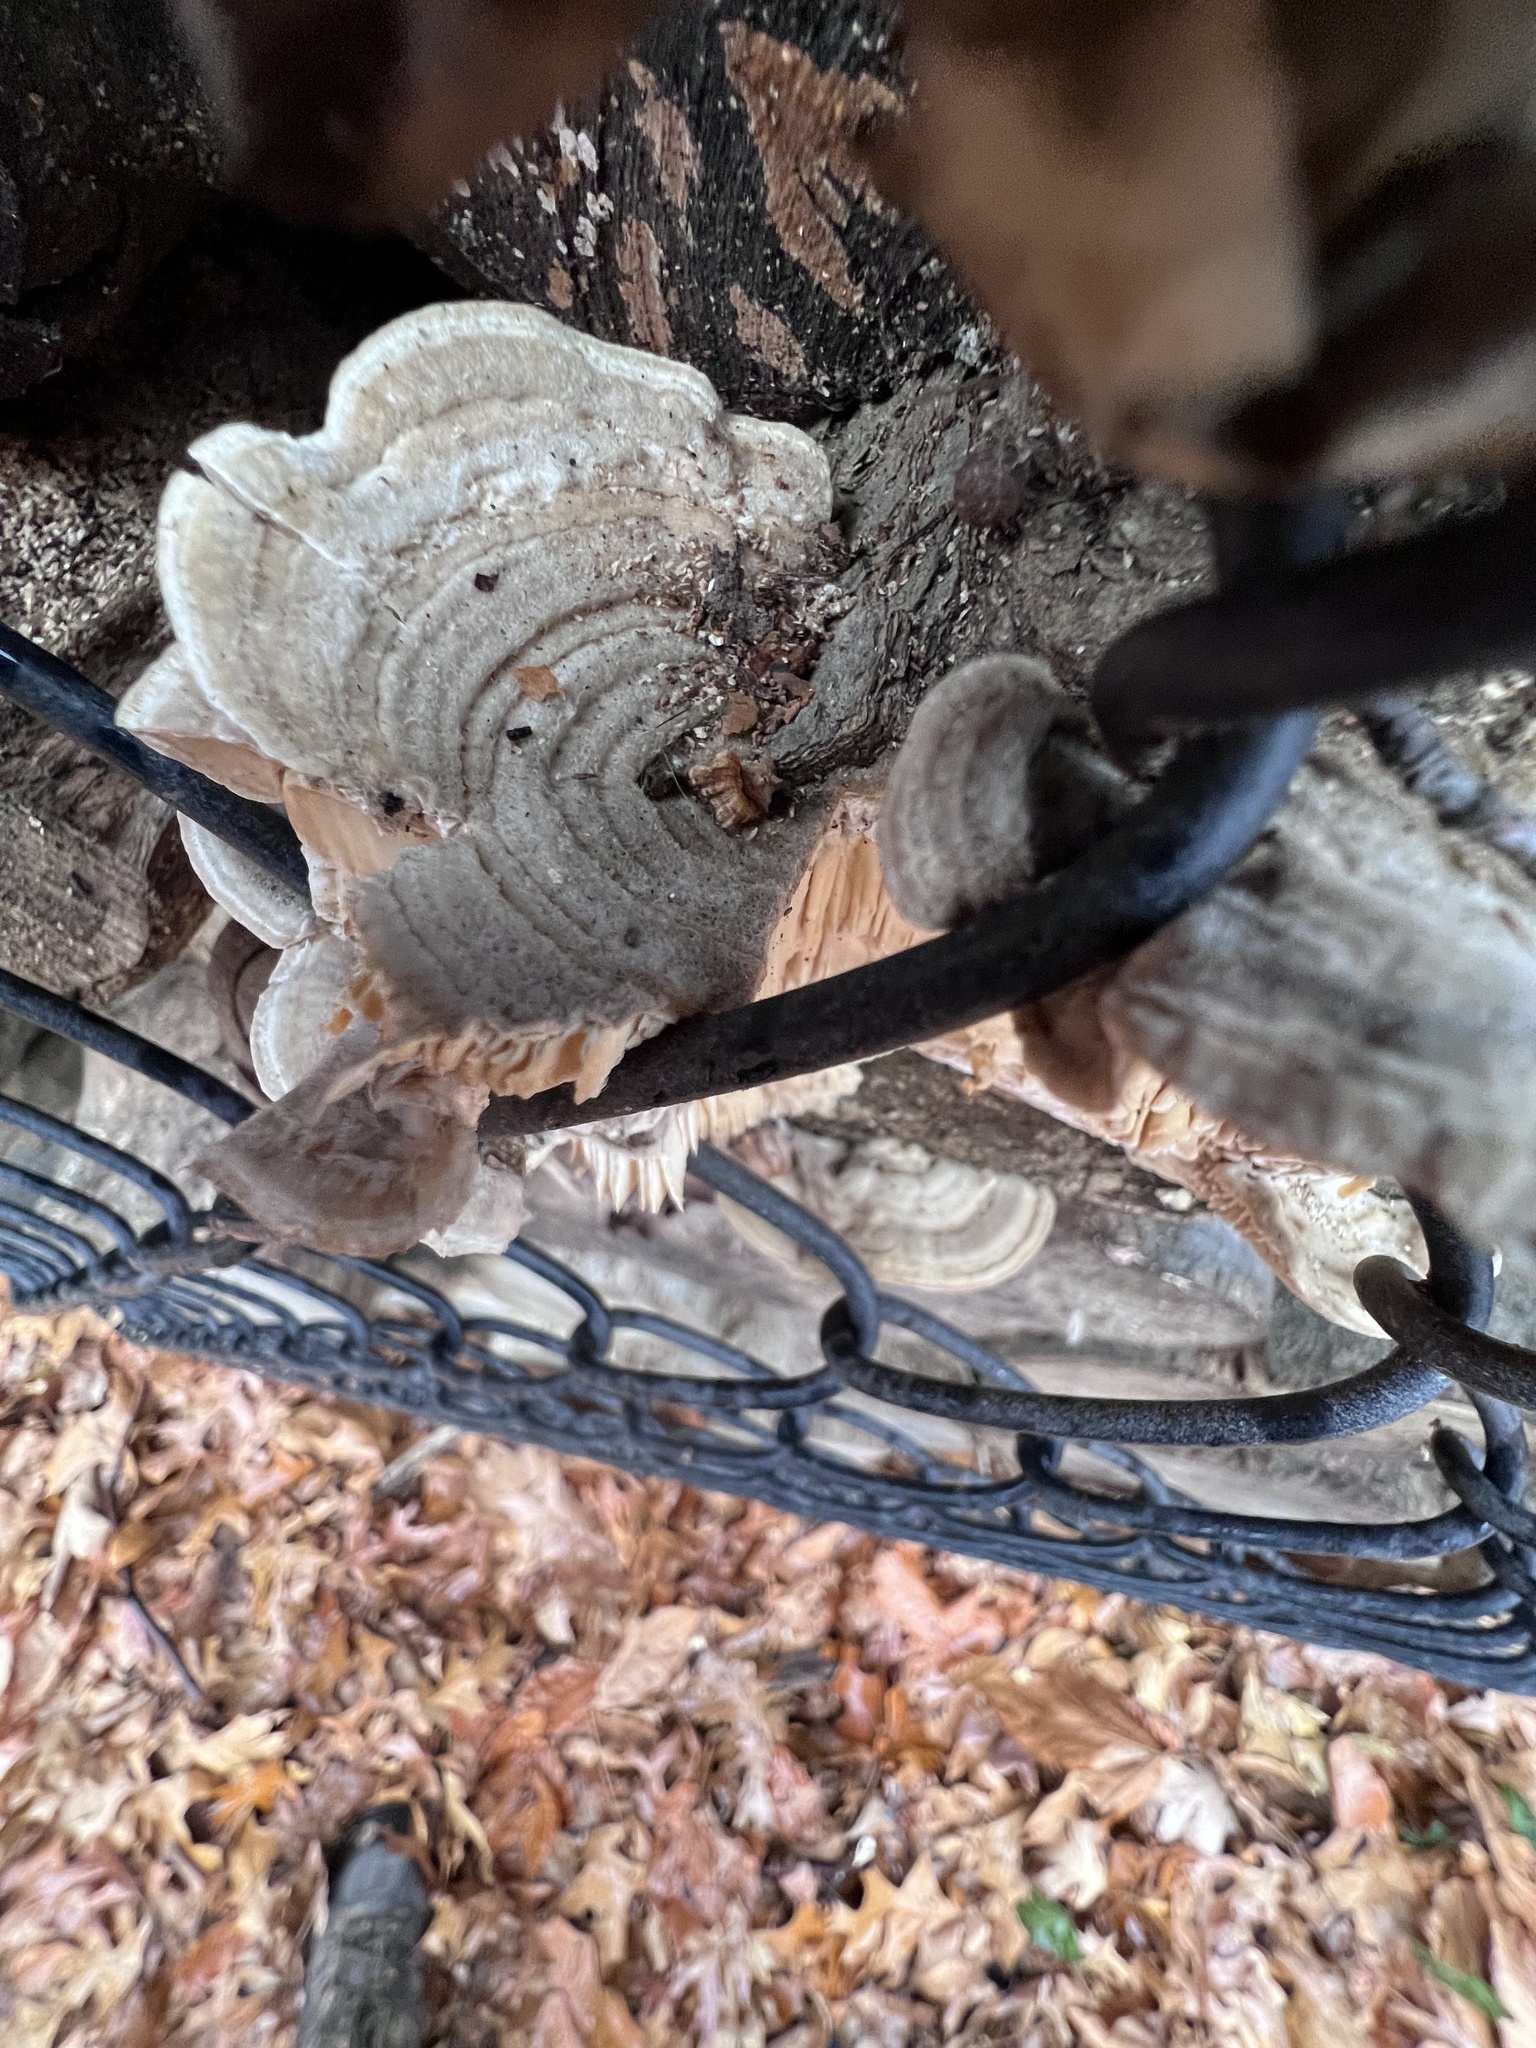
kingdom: Fungi
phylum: Basidiomycota
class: Agaricomycetes
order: Polyporales
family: Polyporaceae
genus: Lenzites
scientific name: Lenzites betulinus
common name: Birch mazegill
